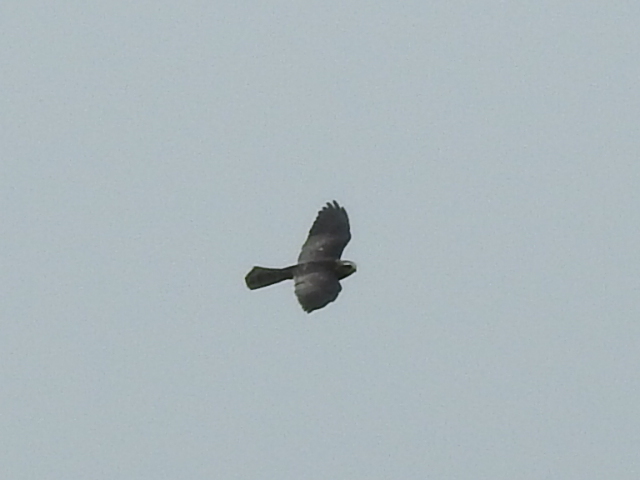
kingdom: Animalia
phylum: Chordata
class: Aves
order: Accipitriformes
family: Accipitridae
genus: Ictinia
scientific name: Ictinia mississippiensis
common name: Mississippi kite
